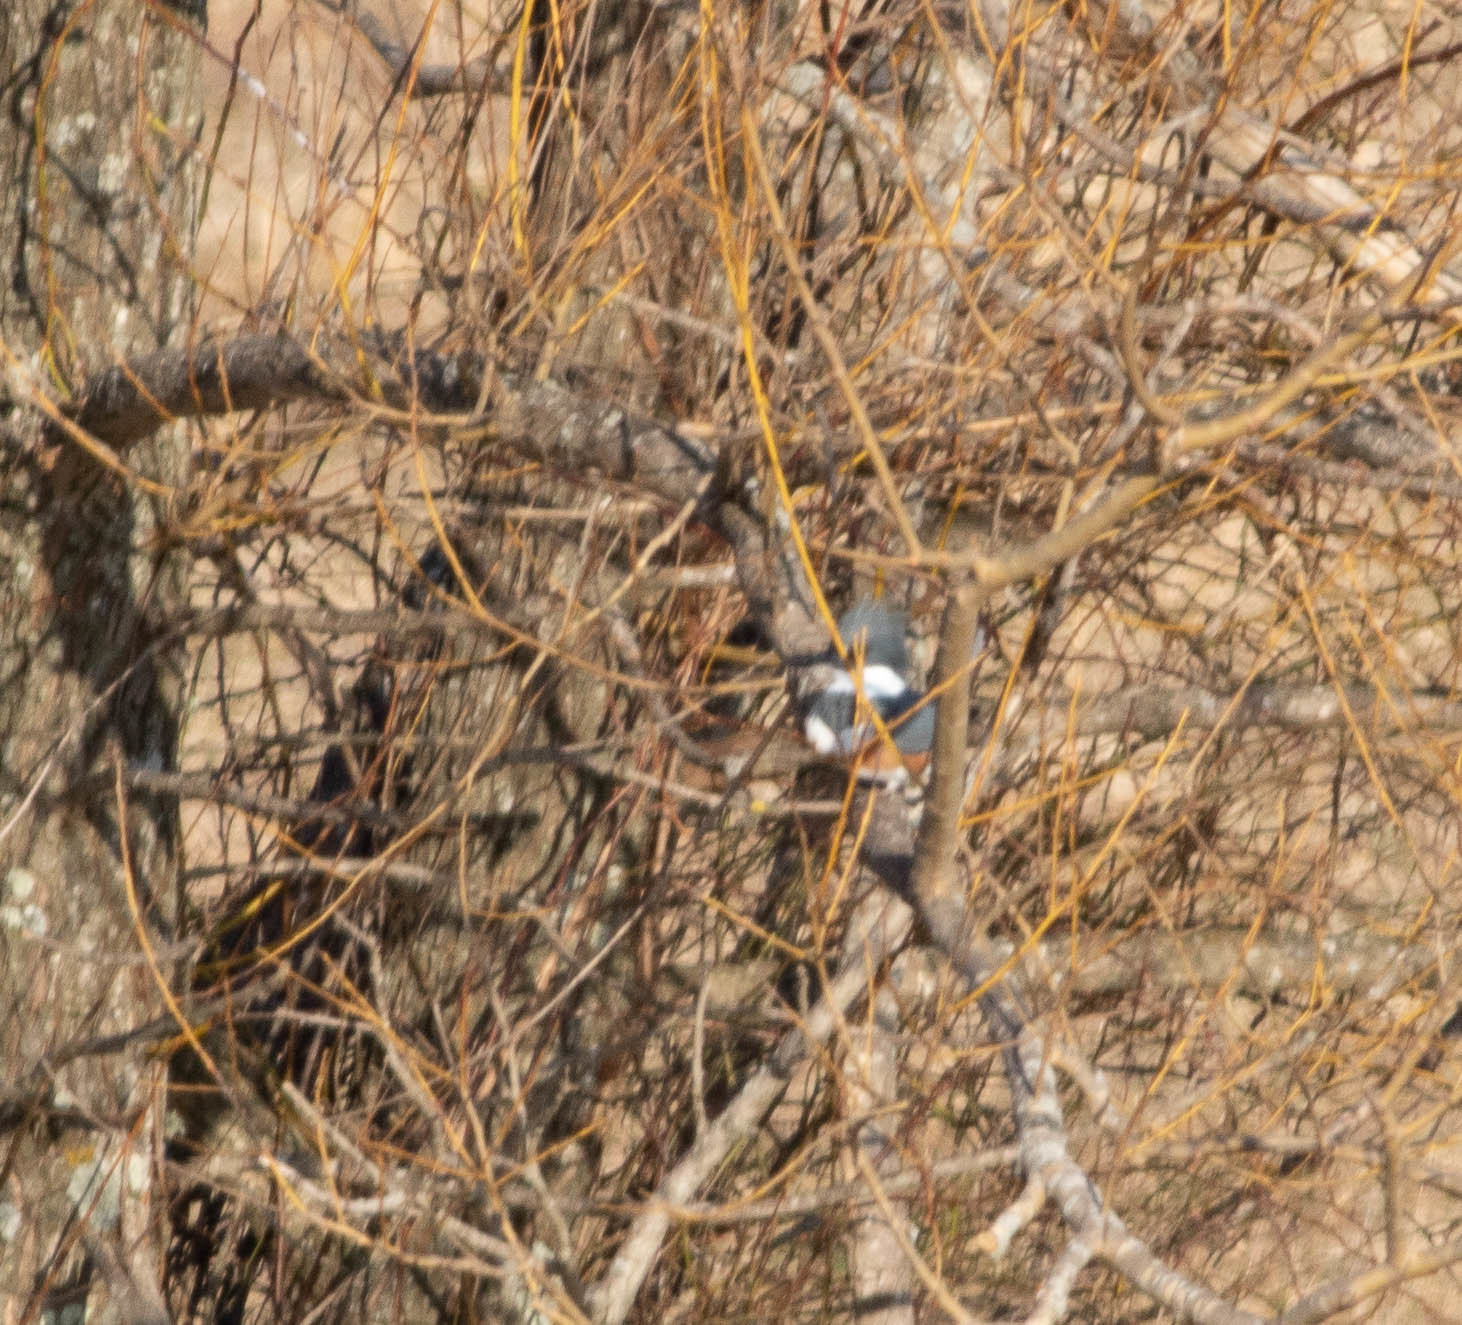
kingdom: Animalia
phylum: Chordata
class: Aves
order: Coraciiformes
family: Alcedinidae
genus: Megaceryle
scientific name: Megaceryle alcyon
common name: Belted kingfisher
